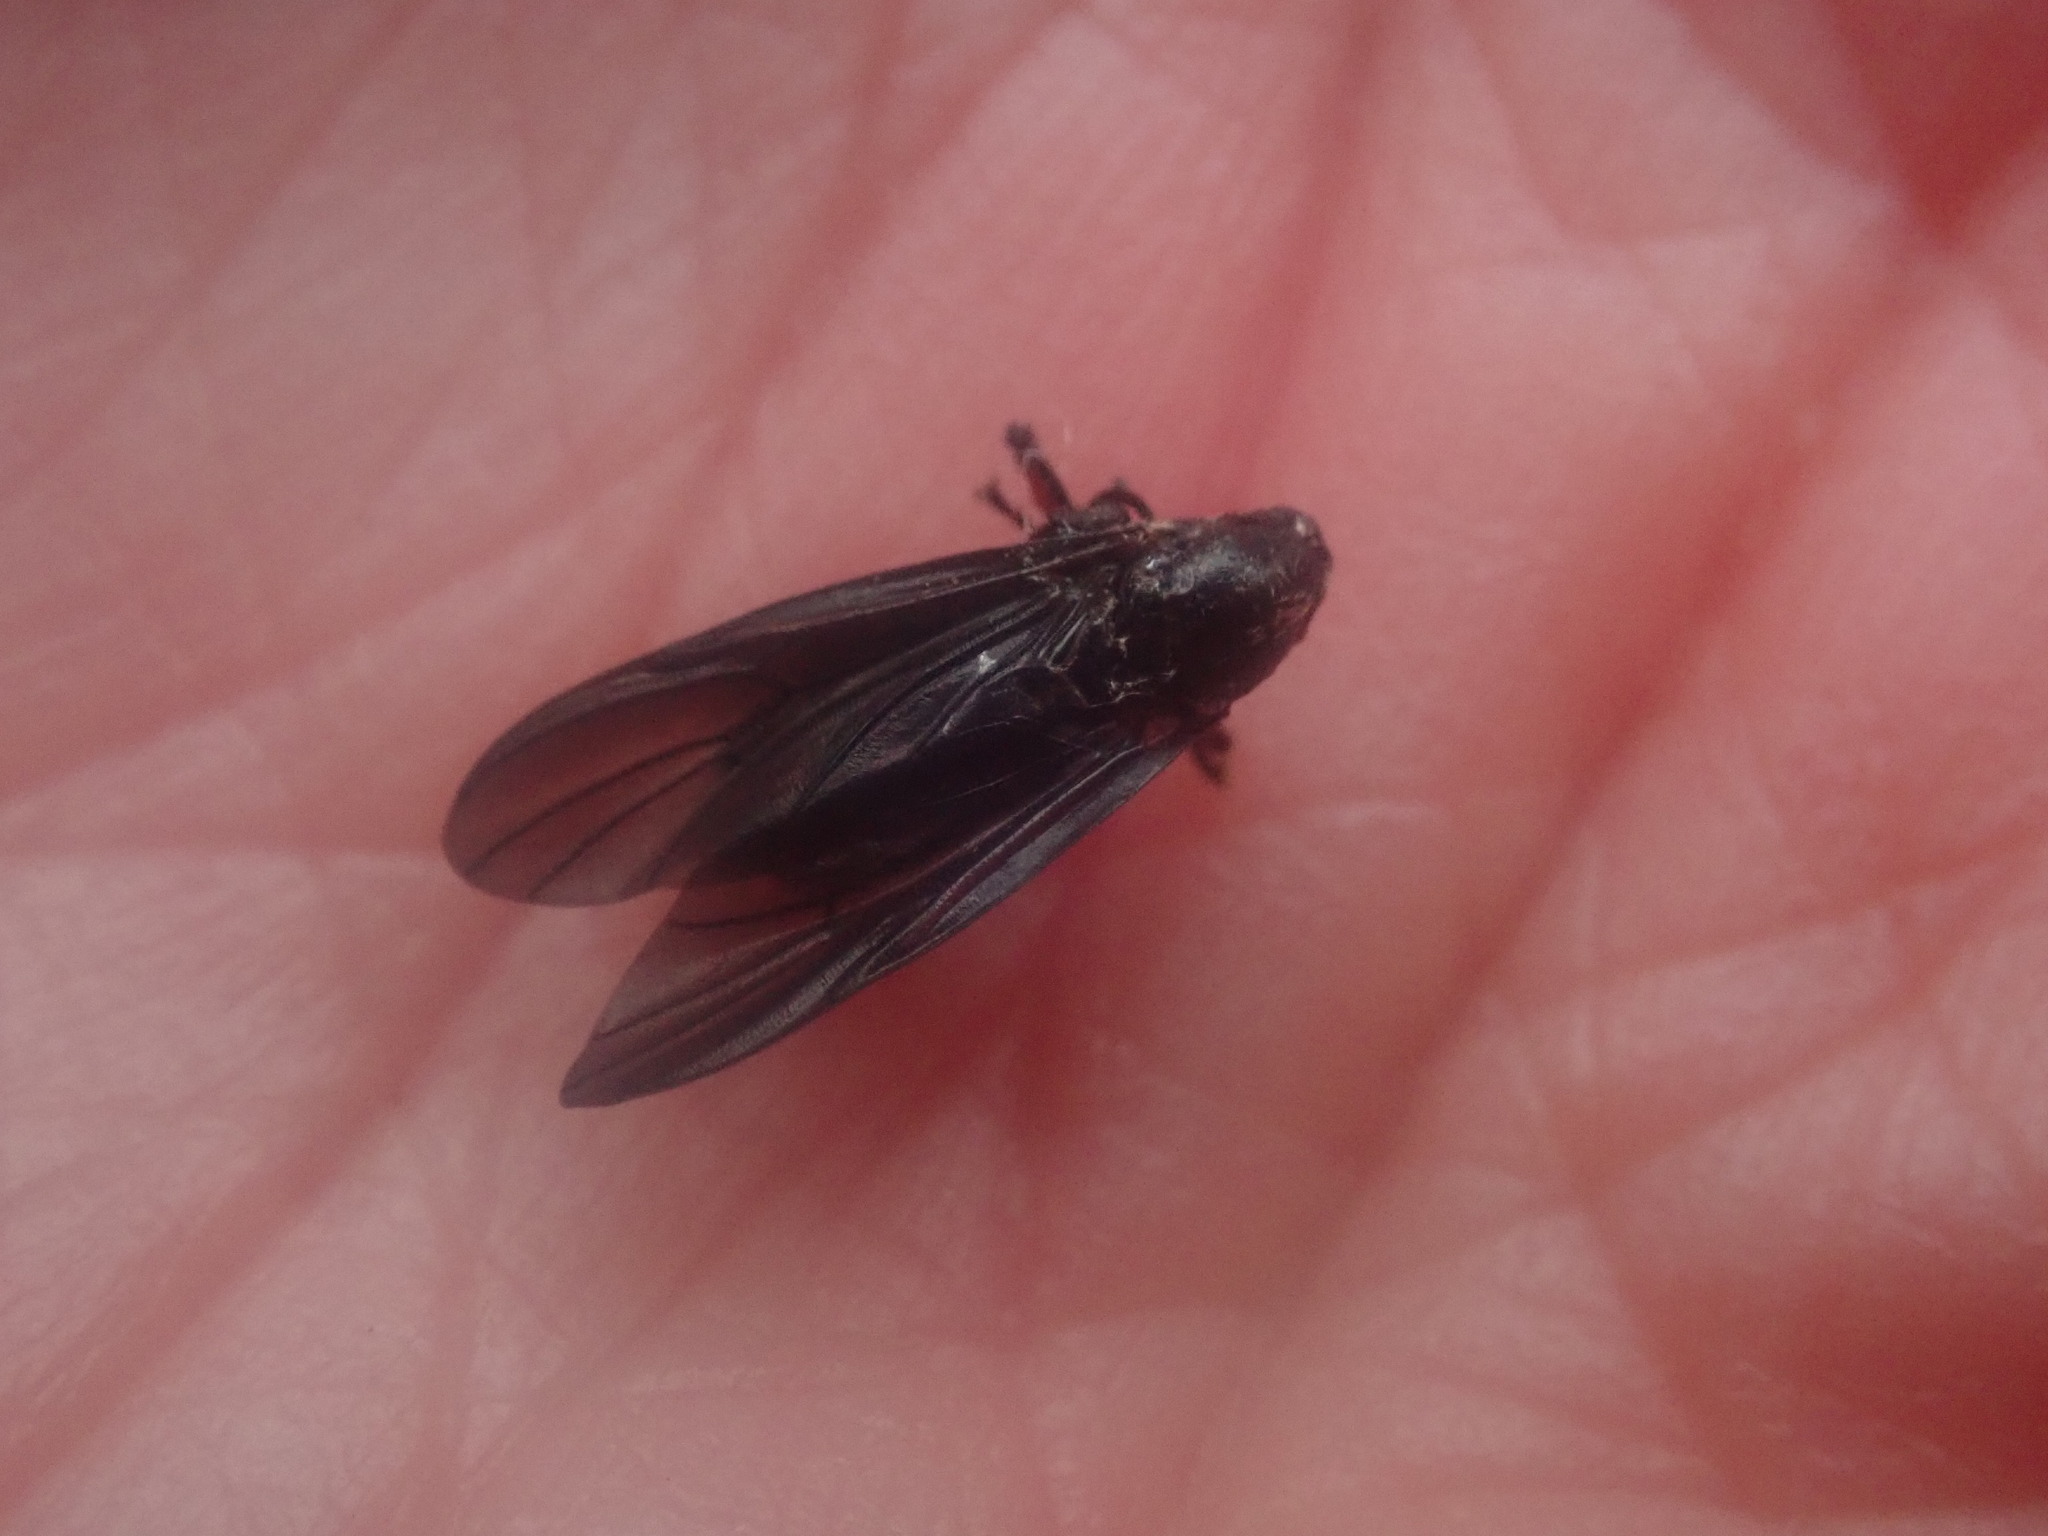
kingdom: Animalia
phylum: Arthropoda
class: Insecta
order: Diptera
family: Bibionidae
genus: Bibio
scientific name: Bibio femoratus
